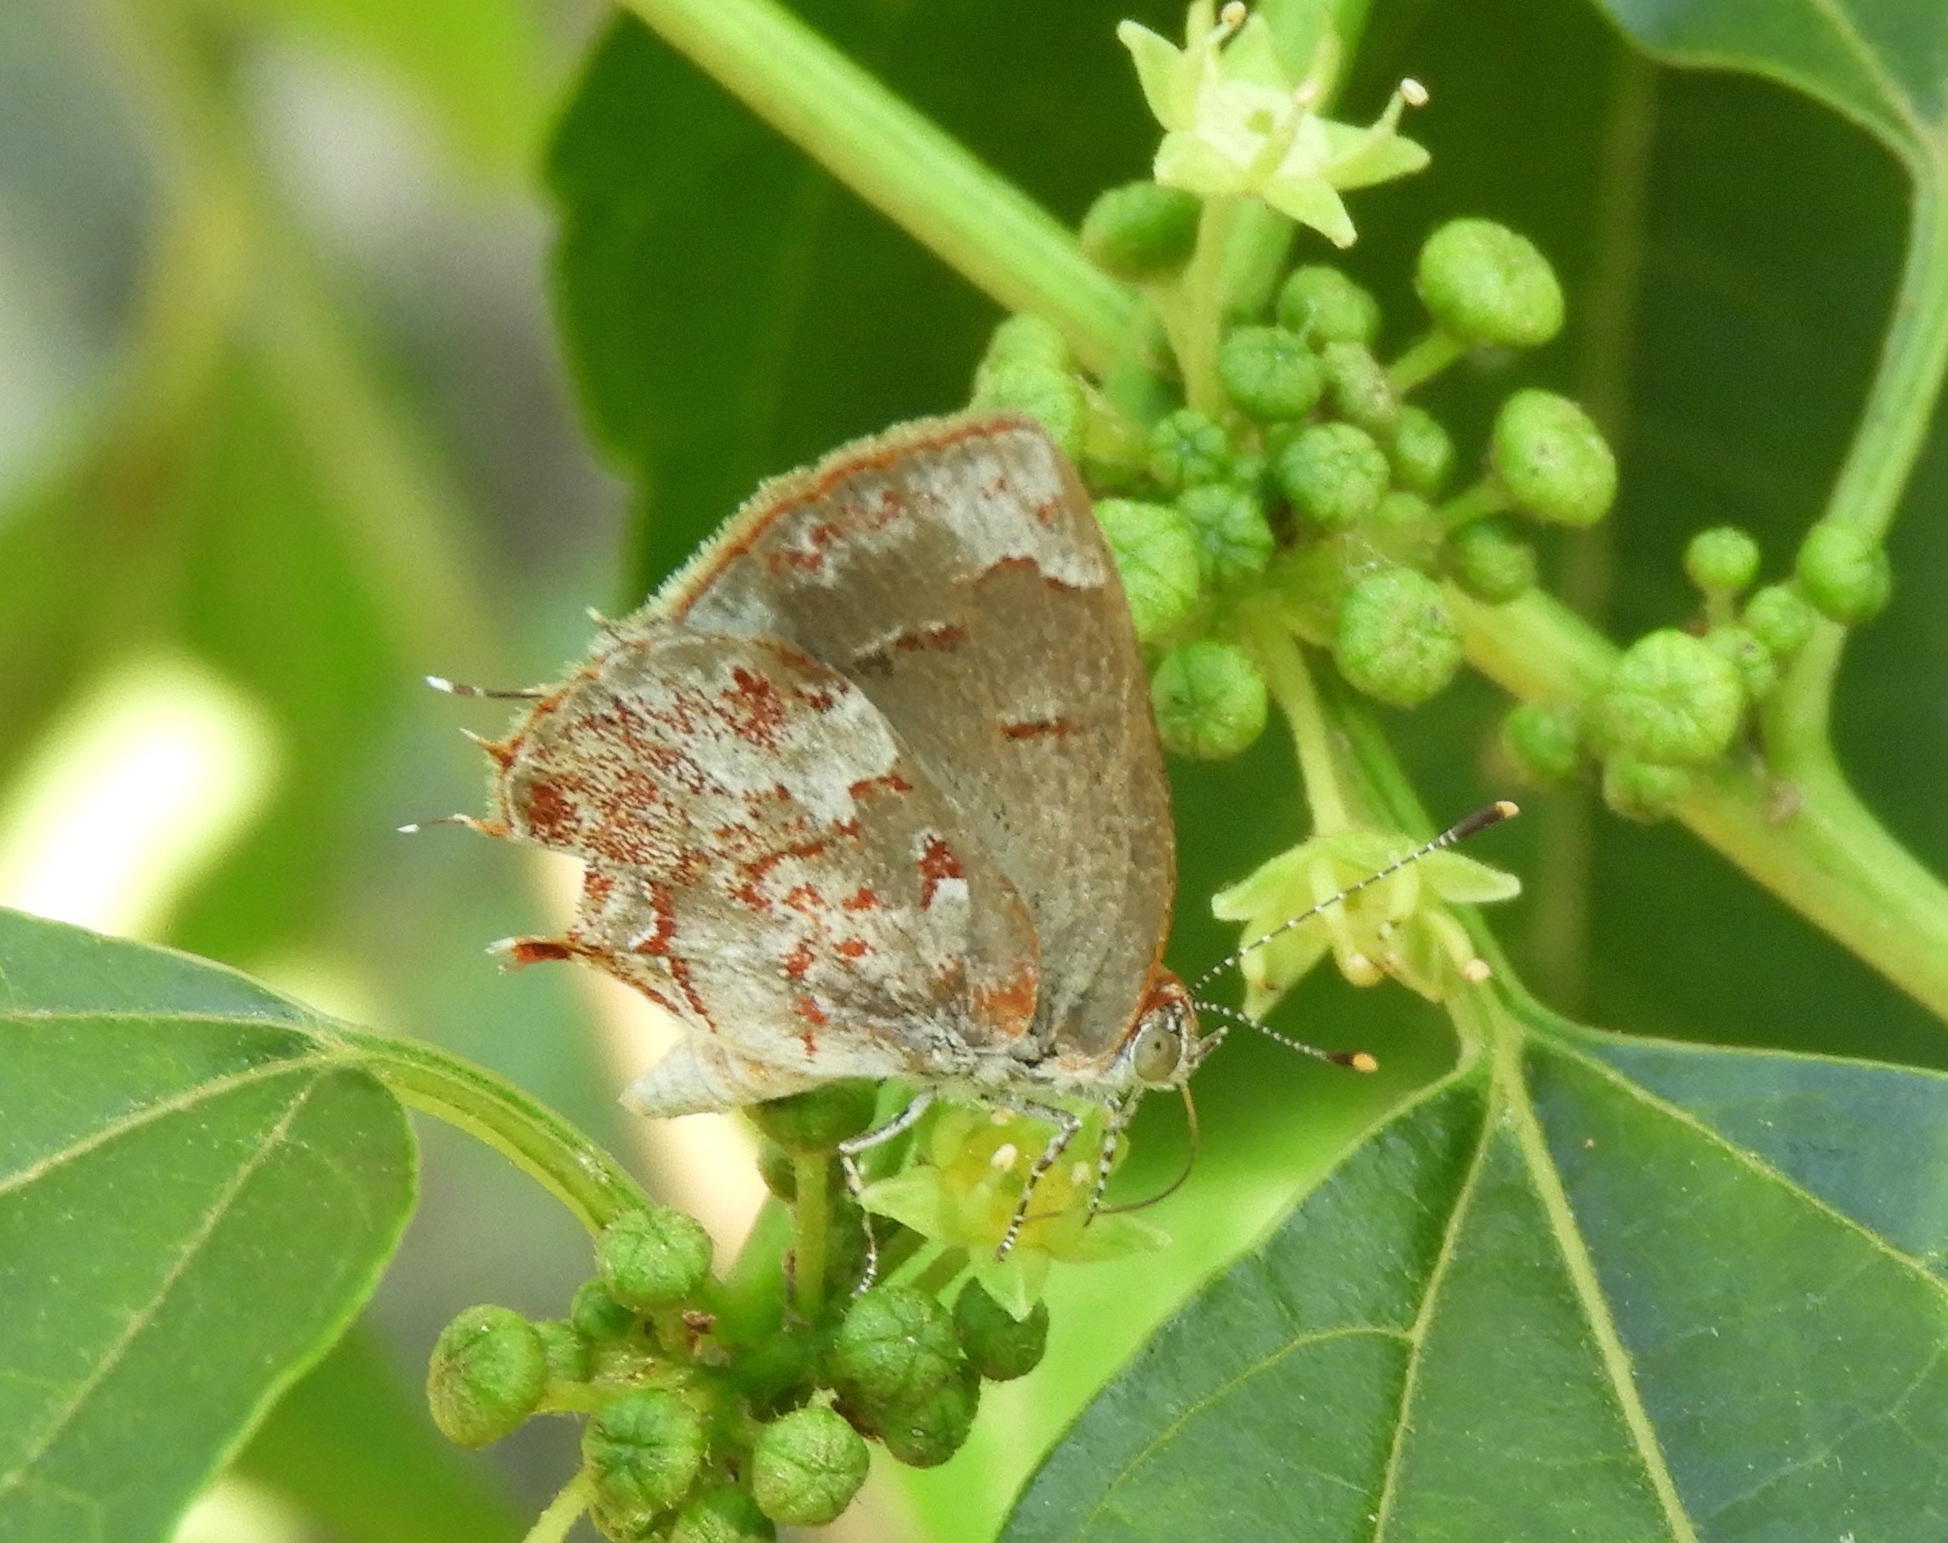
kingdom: Animalia
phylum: Arthropoda
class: Insecta
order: Lepidoptera
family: Lycaenidae
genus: Ministrymon
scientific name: Ministrymon phrutus
